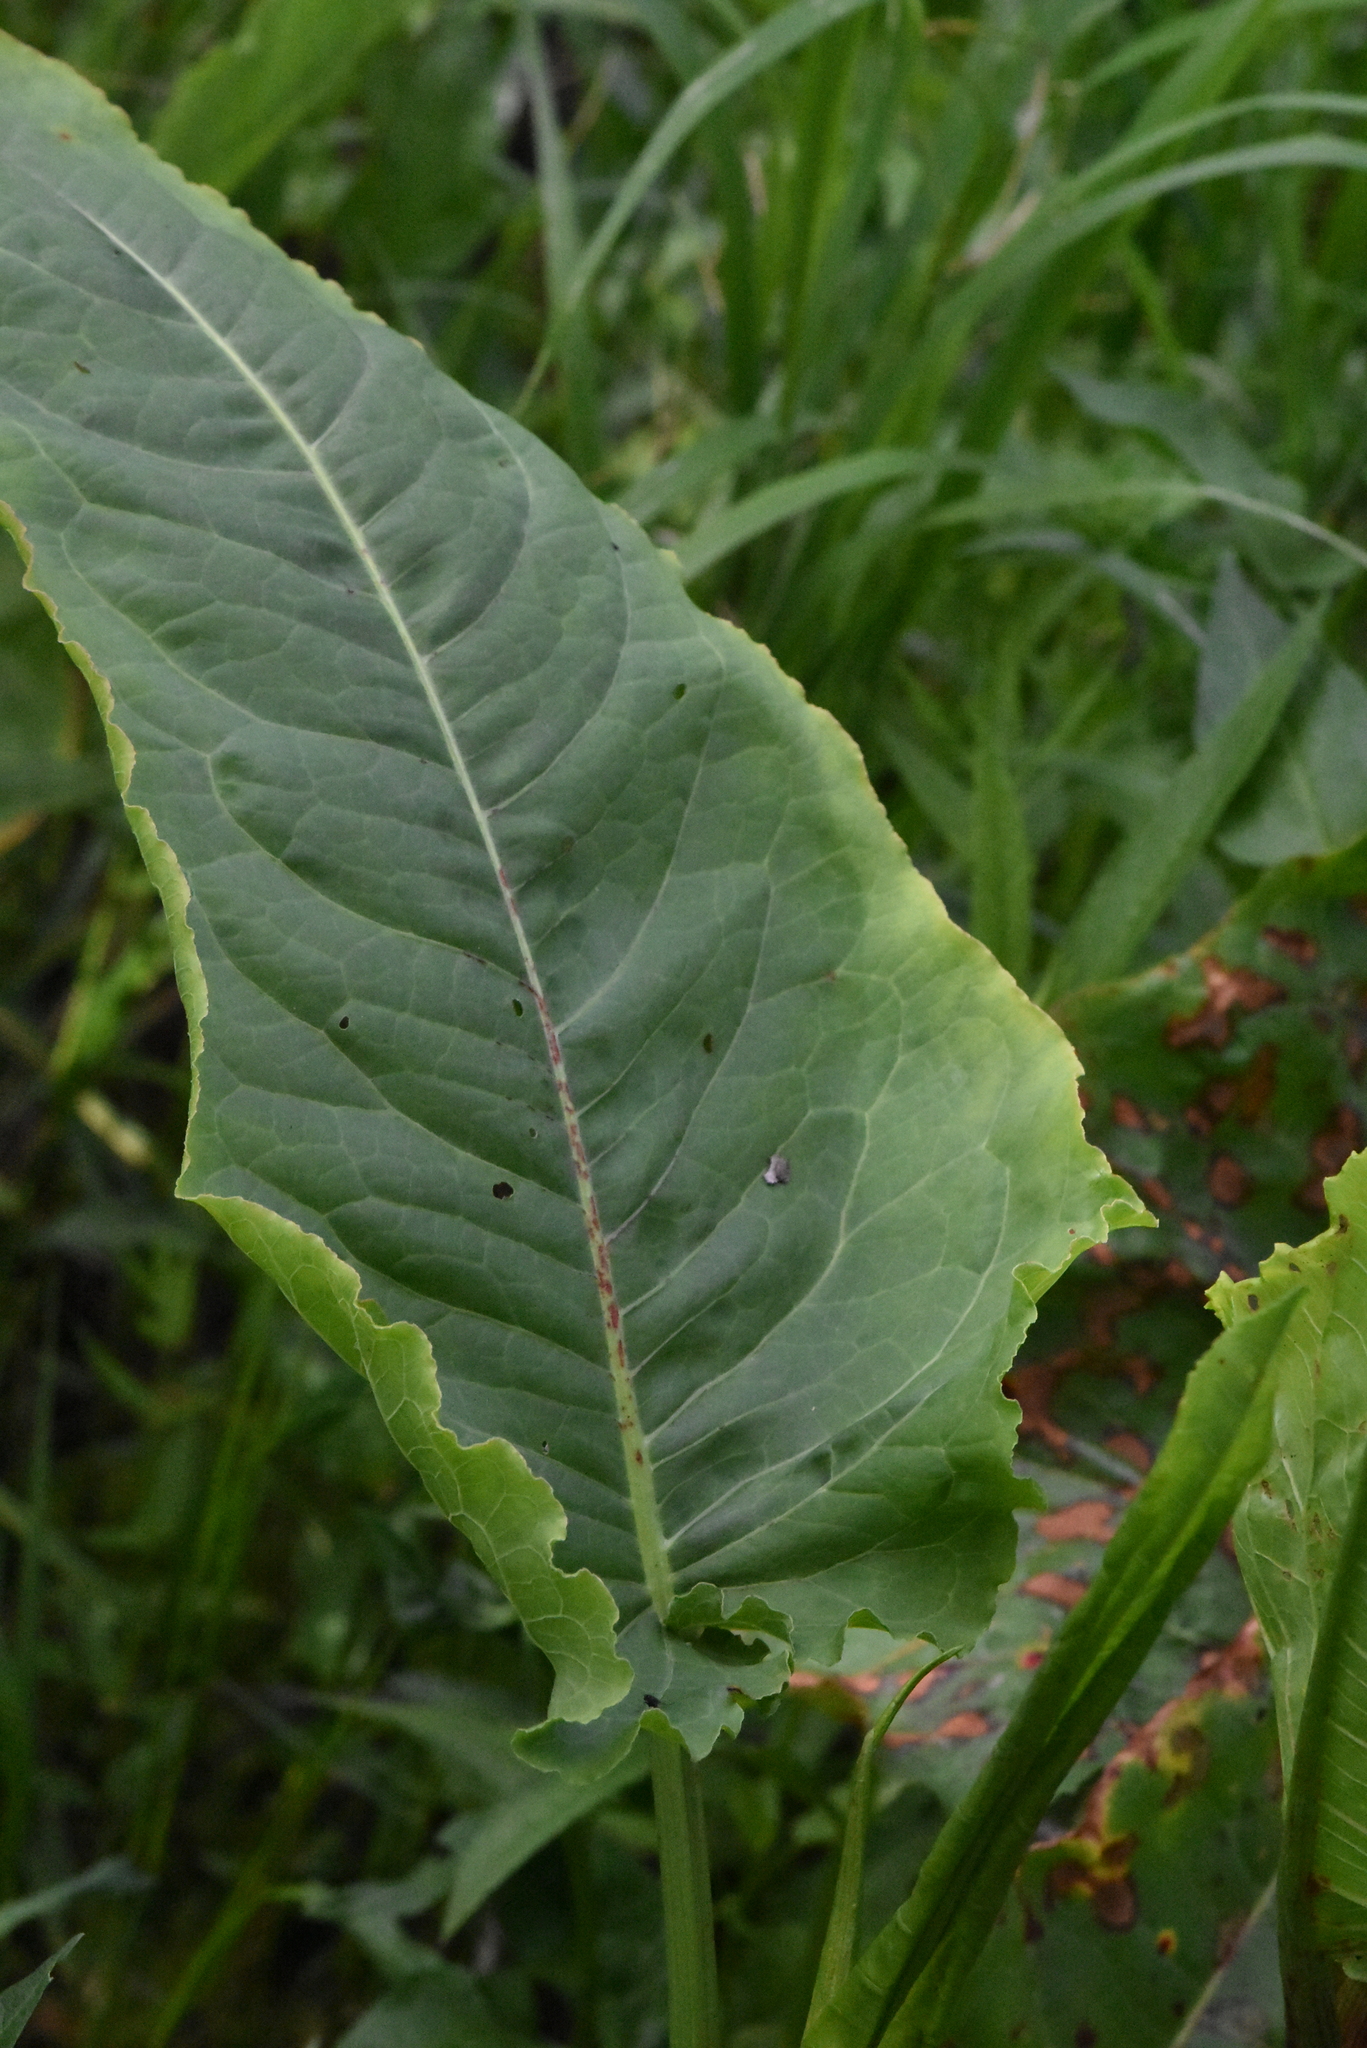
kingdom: Plantae
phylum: Tracheophyta
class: Magnoliopsida
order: Caryophyllales
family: Polygonaceae
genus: Rumex
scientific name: Rumex aquaticus
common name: Scottish dock
